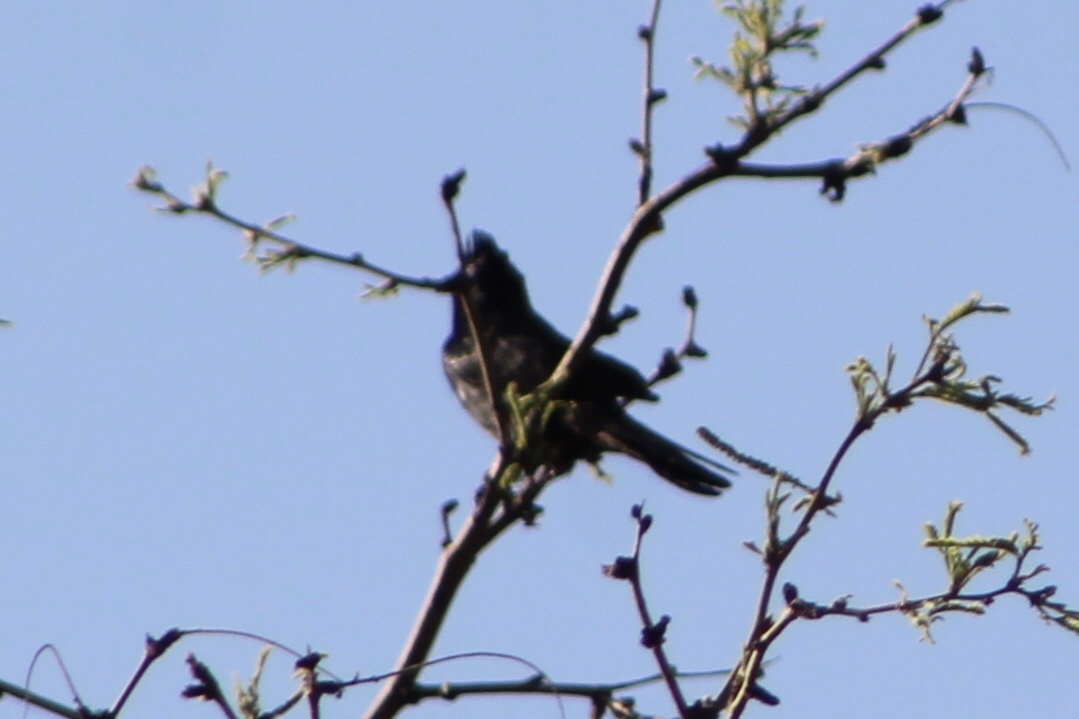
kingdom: Animalia
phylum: Chordata
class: Aves
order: Passeriformes
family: Ptilogonatidae
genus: Phainopepla
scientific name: Phainopepla nitens
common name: Phainopepla
